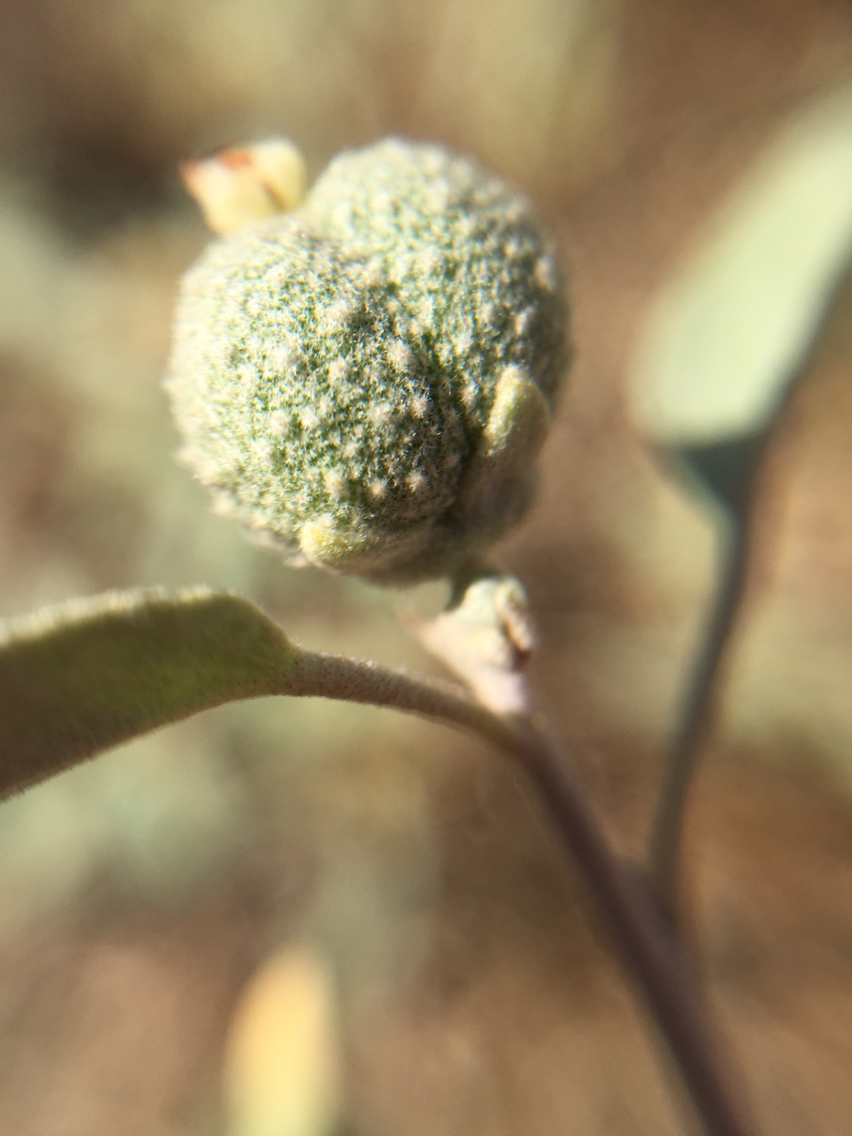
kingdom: Plantae
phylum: Tracheophyta
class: Magnoliopsida
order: Malpighiales
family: Euphorbiaceae
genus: Croton
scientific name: Croton californicus
